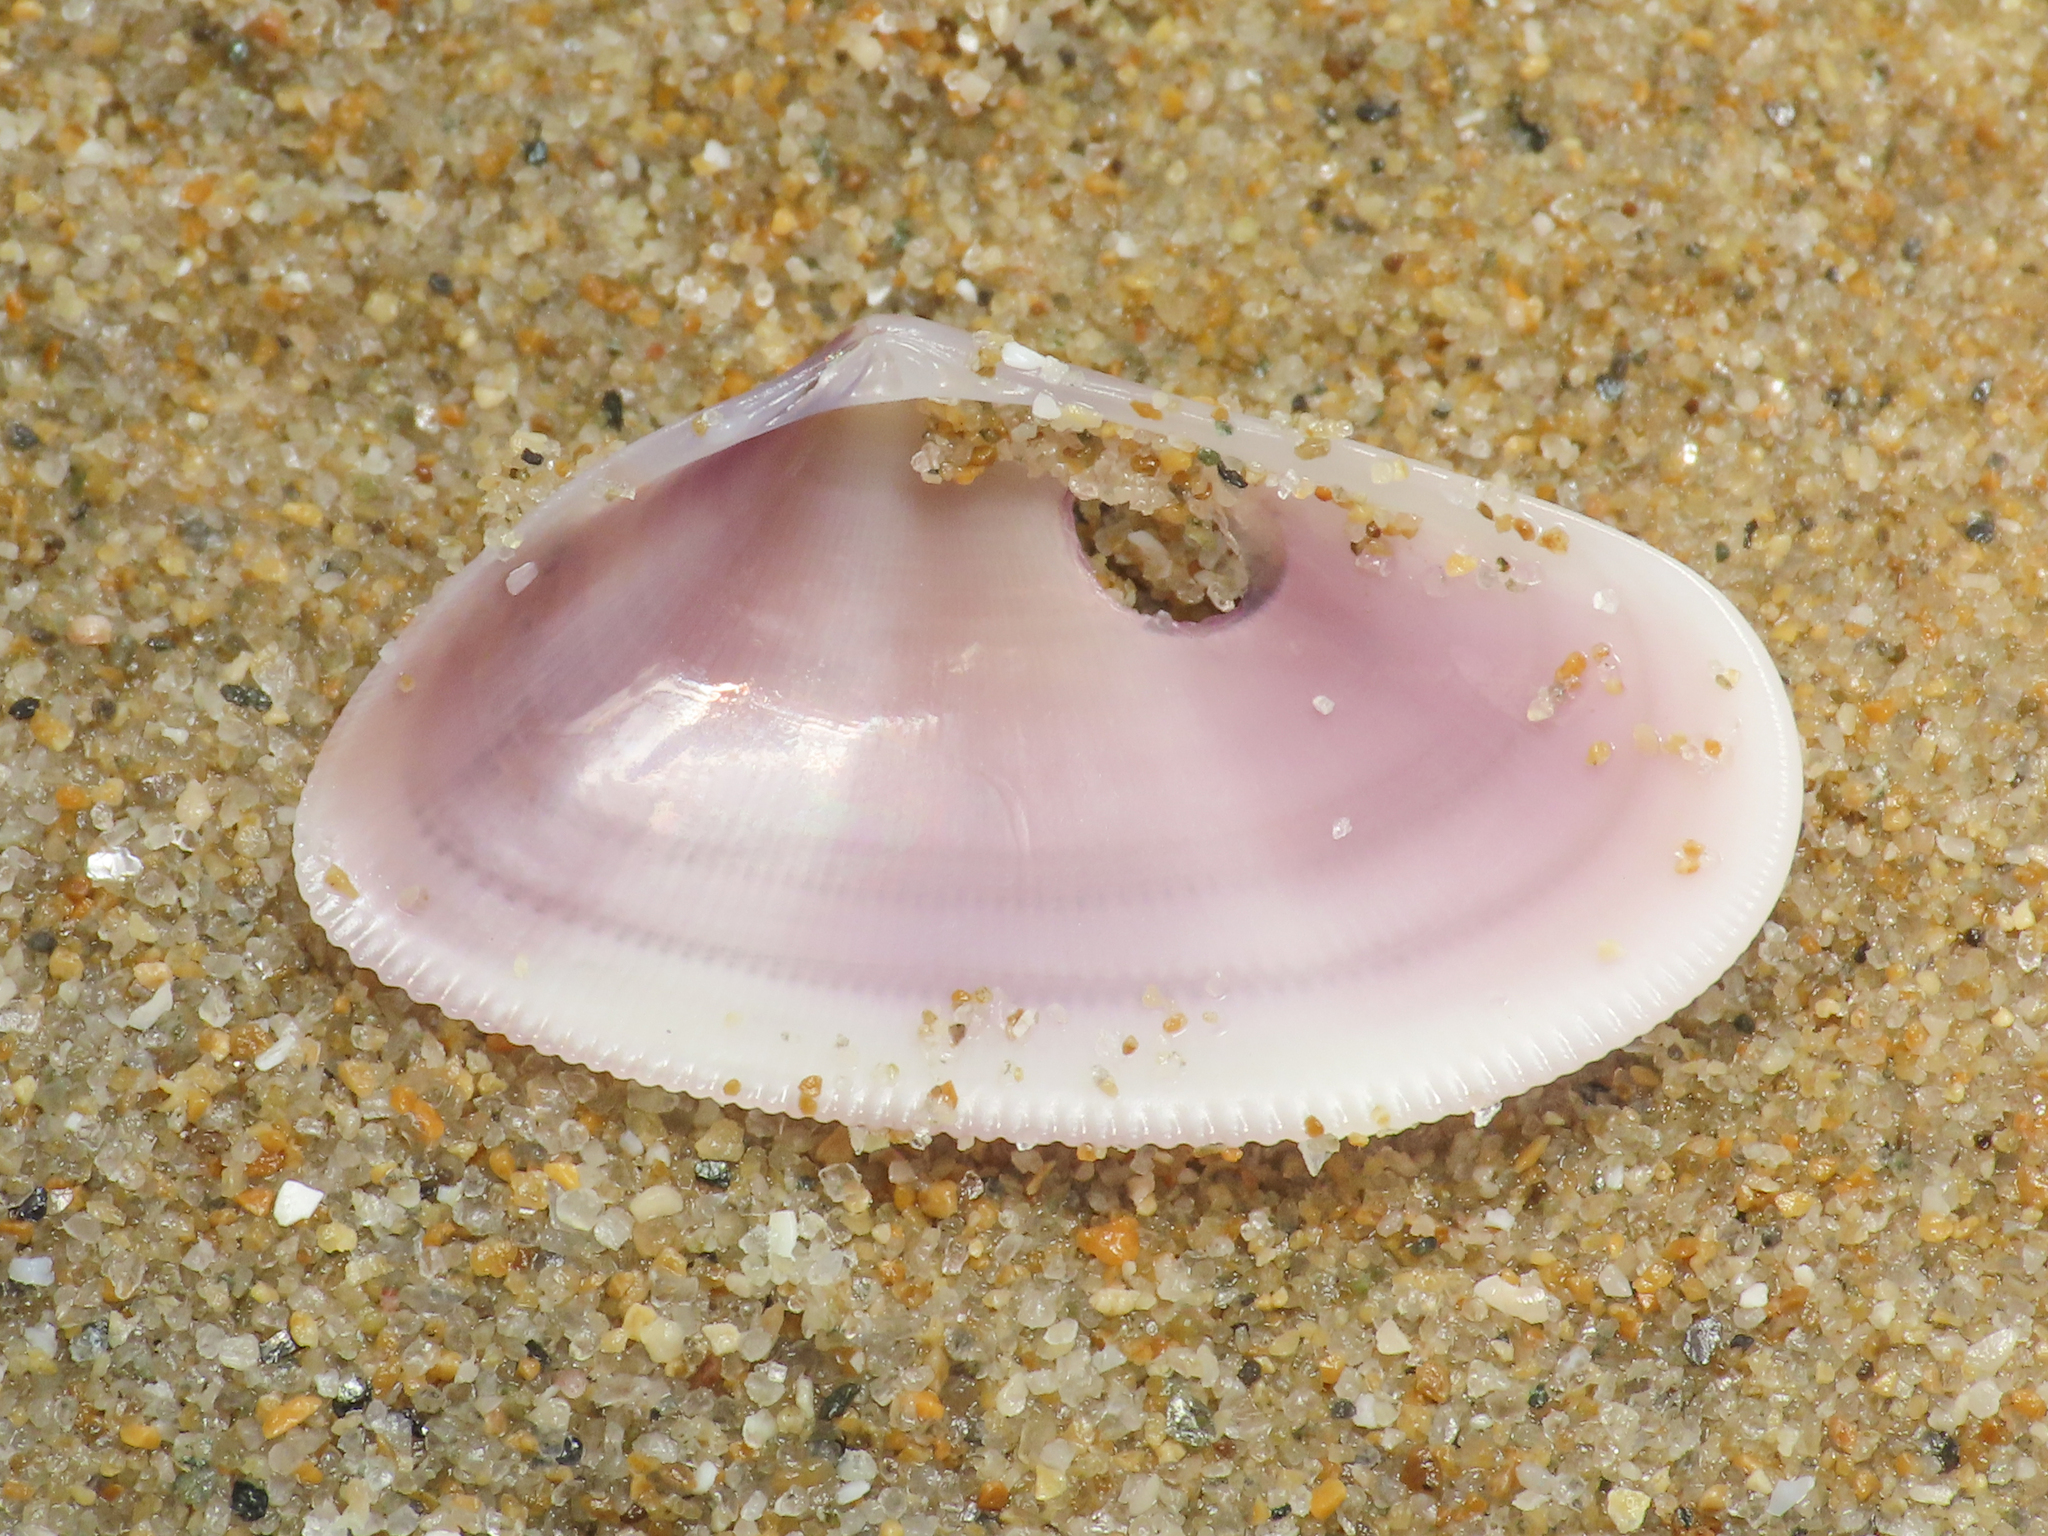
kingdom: Animalia
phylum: Mollusca
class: Bivalvia
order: Cardiida
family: Donacidae
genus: Donax
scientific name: Donax semistriatus
